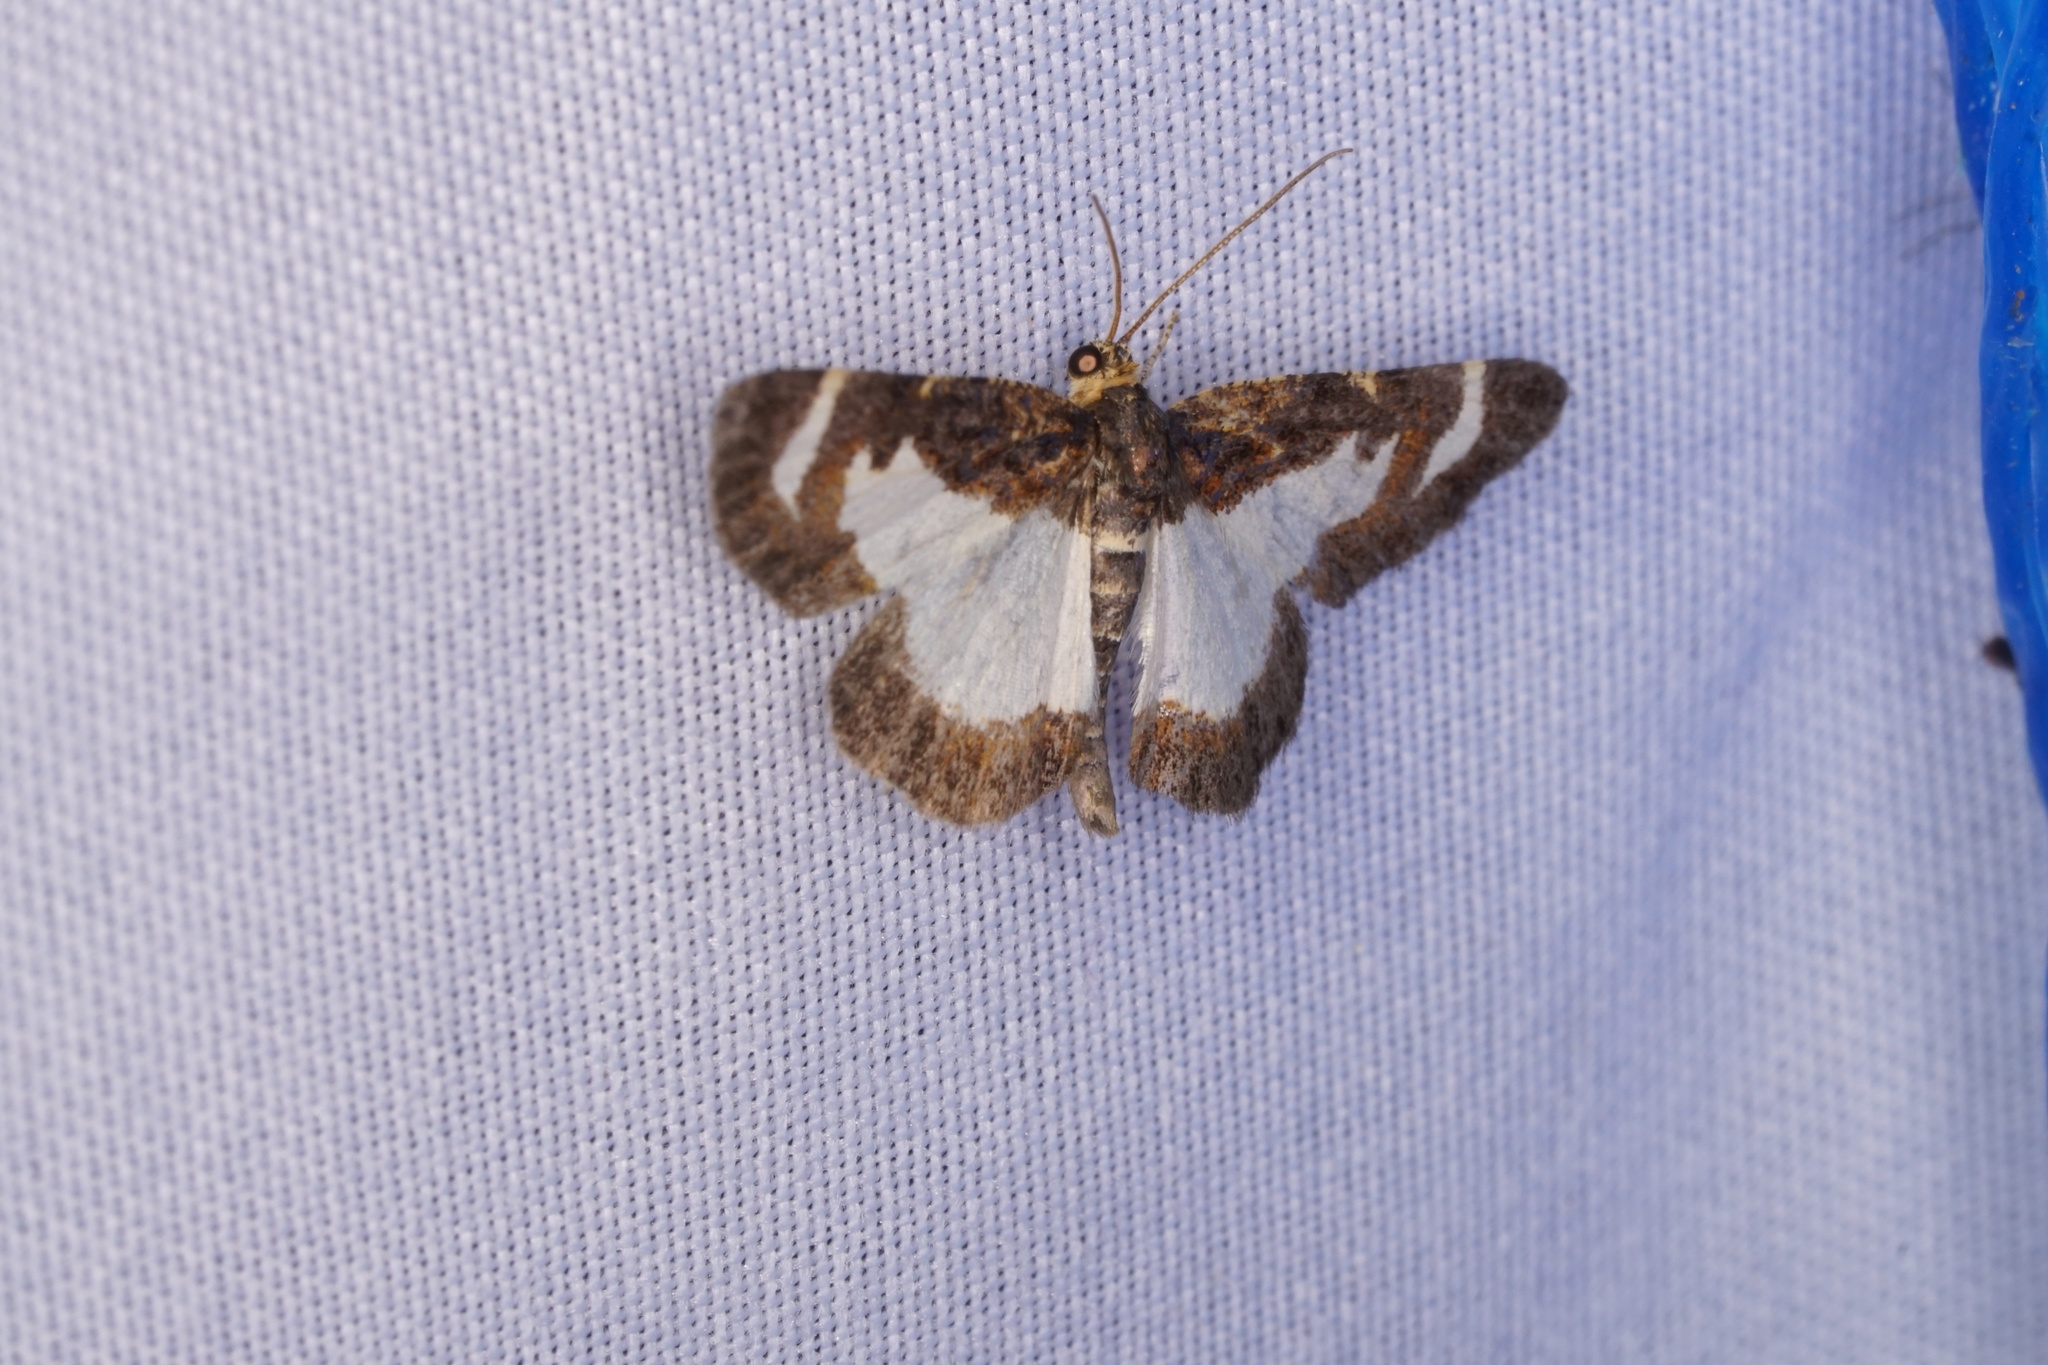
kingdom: Animalia
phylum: Arthropoda
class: Insecta
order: Lepidoptera
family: Geometridae
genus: Heliomata
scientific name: Heliomata cycladata
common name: Common spring moth
